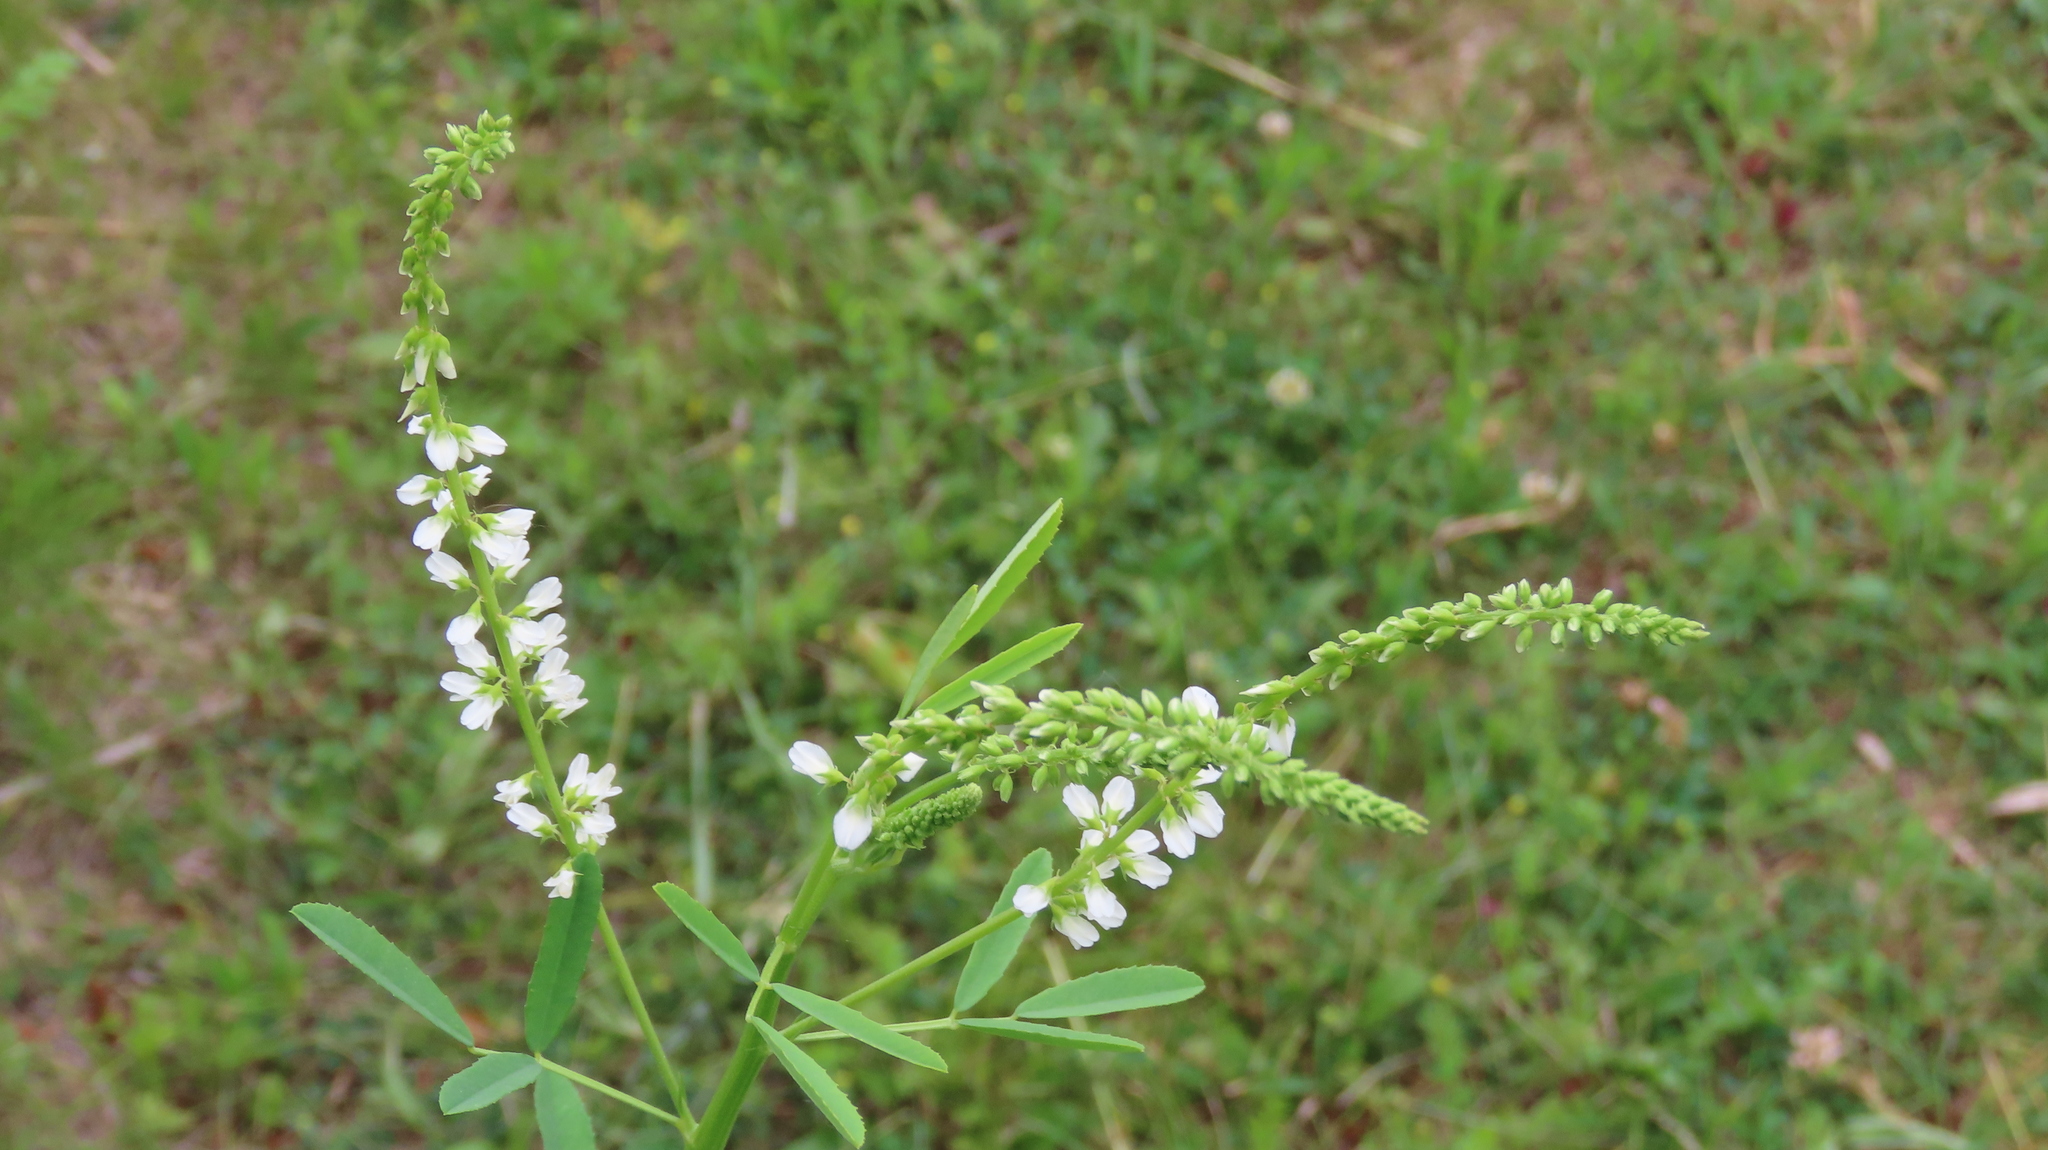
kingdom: Plantae
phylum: Tracheophyta
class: Magnoliopsida
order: Fabales
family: Fabaceae
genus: Melilotus
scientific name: Melilotus albus
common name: White melilot
